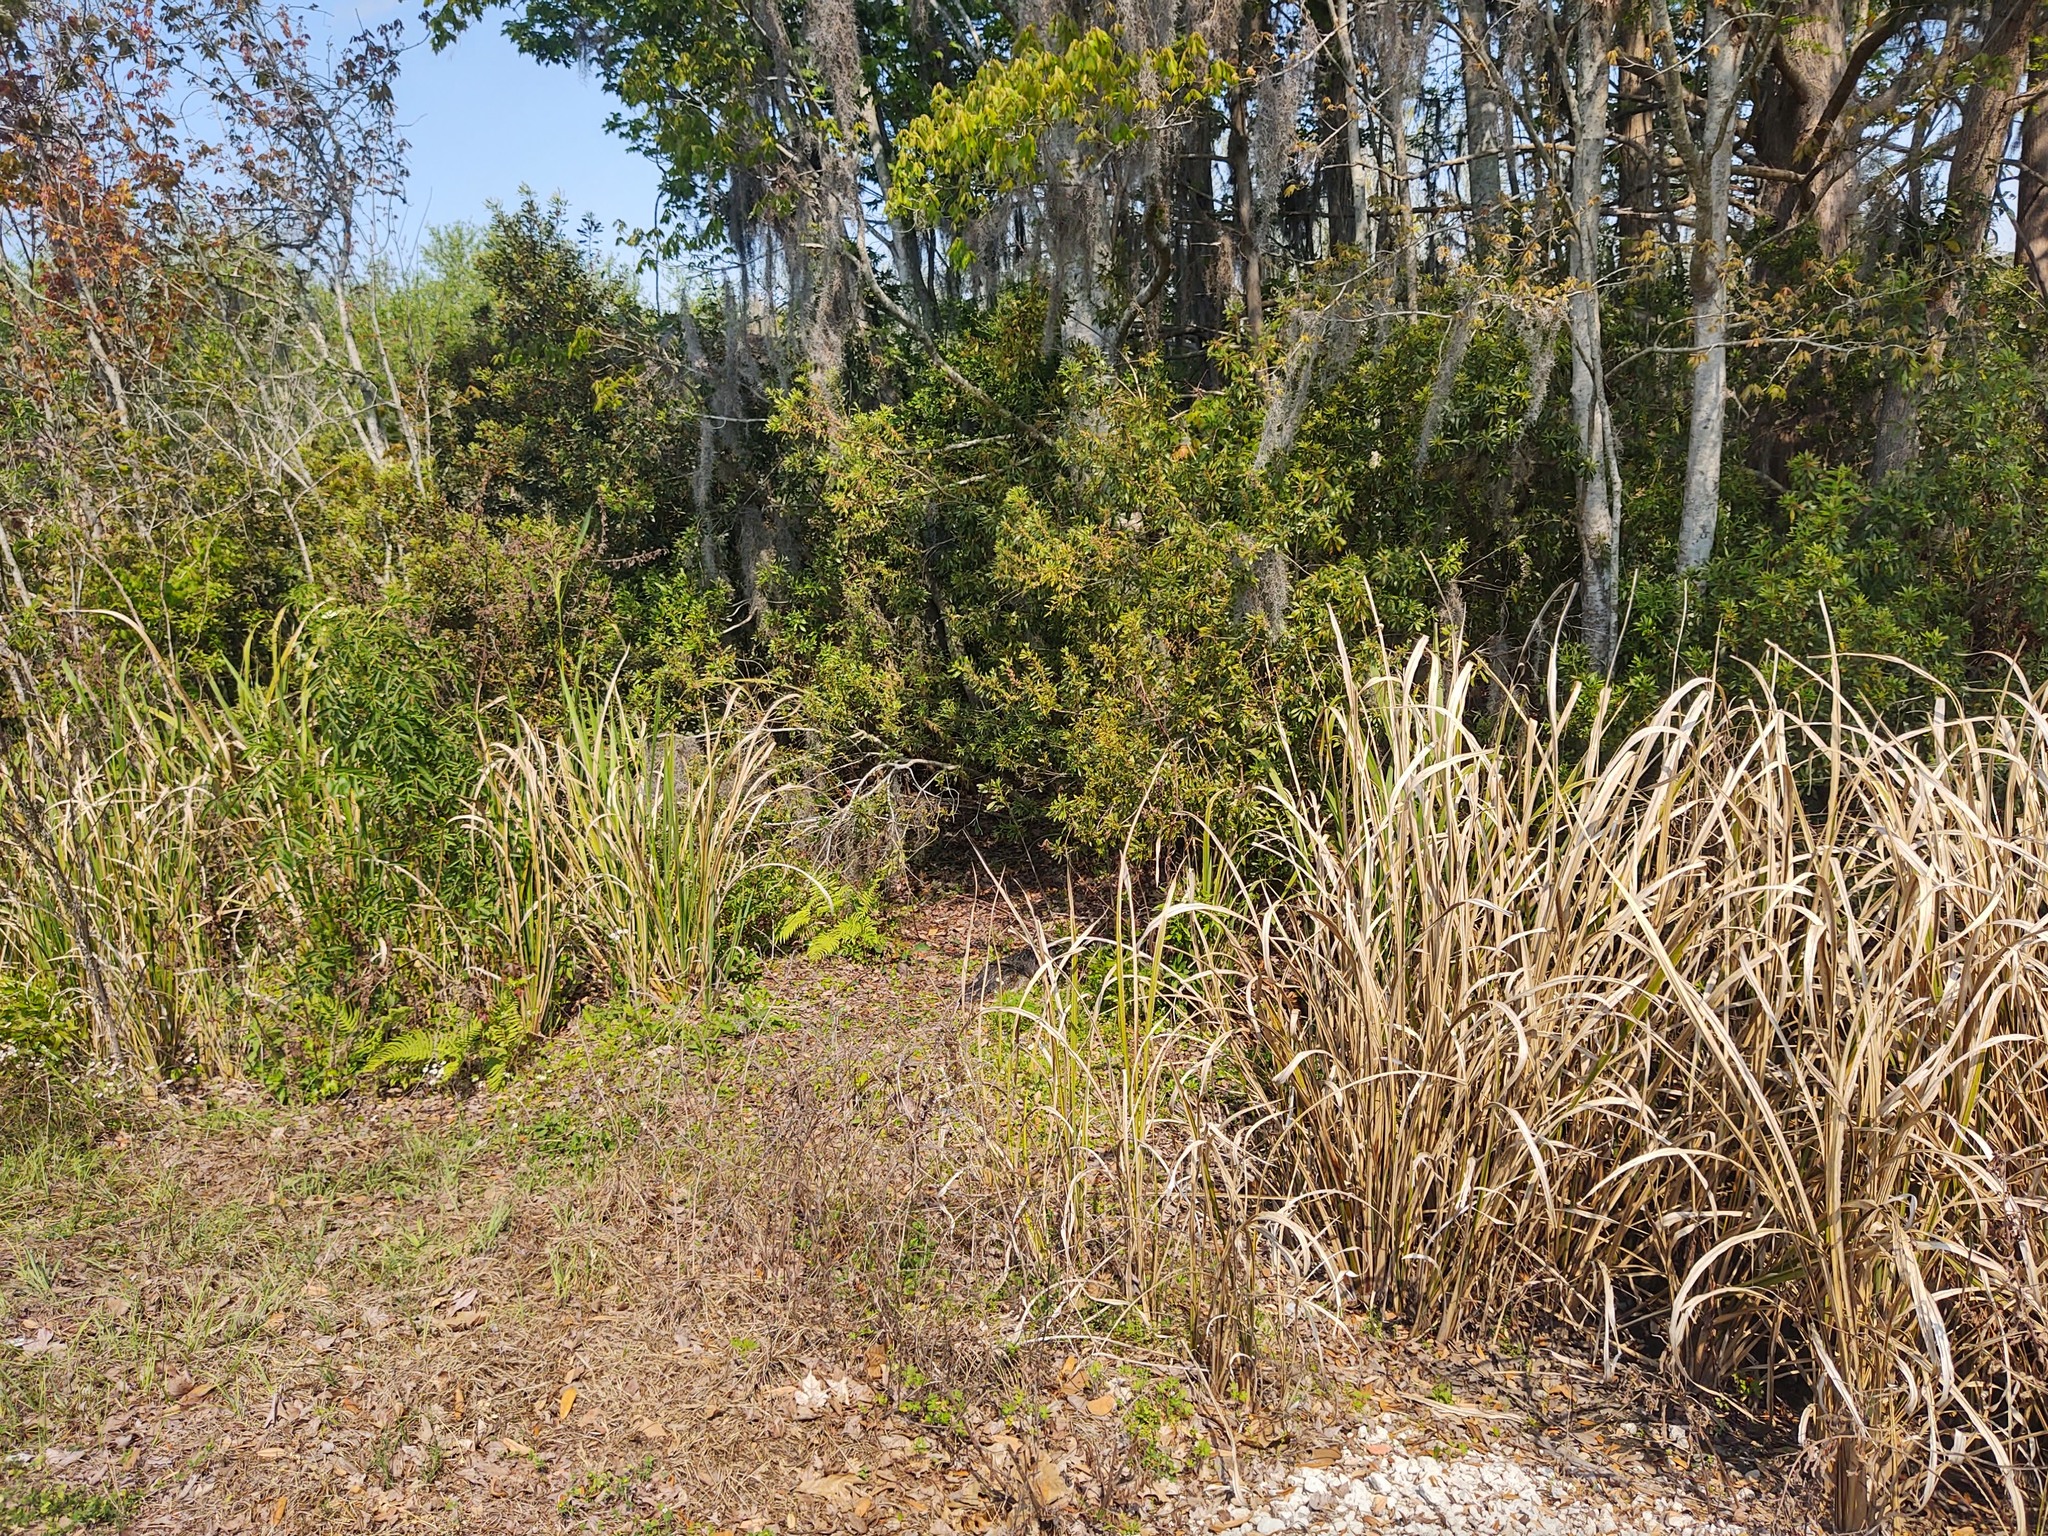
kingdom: Animalia
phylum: Chordata
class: Crocodylia
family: Alligatoridae
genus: Alligator
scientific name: Alligator mississippiensis
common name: American alligator
